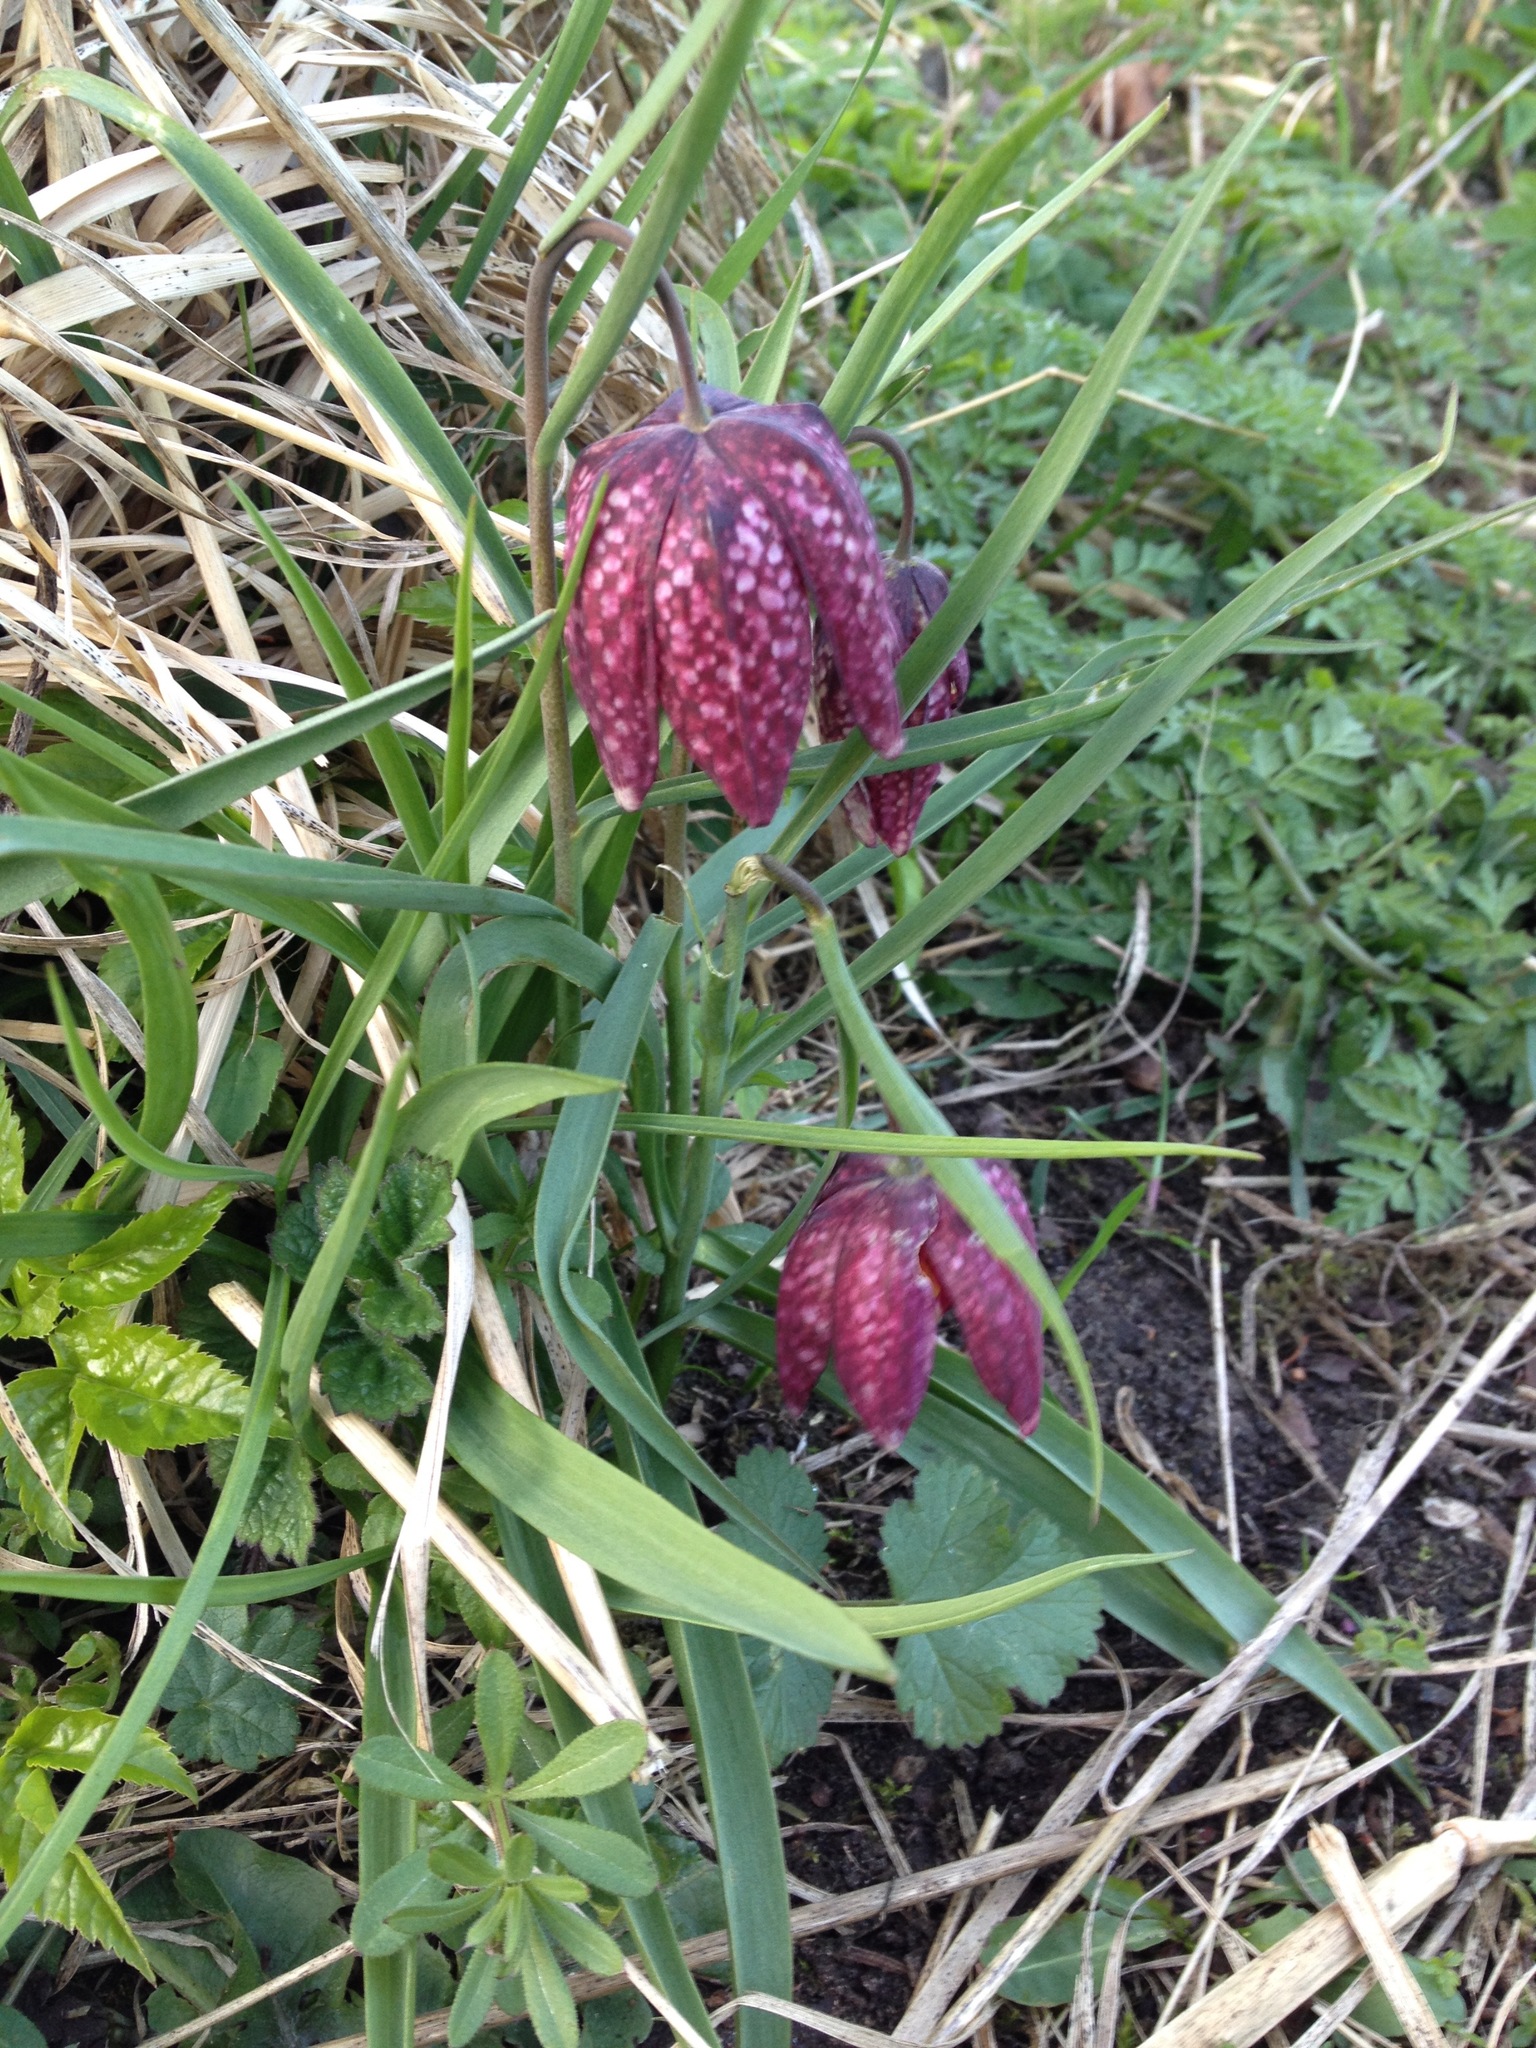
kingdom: Plantae
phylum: Tracheophyta
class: Liliopsida
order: Liliales
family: Liliaceae
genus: Fritillaria
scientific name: Fritillaria meleagris
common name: Fritillary
